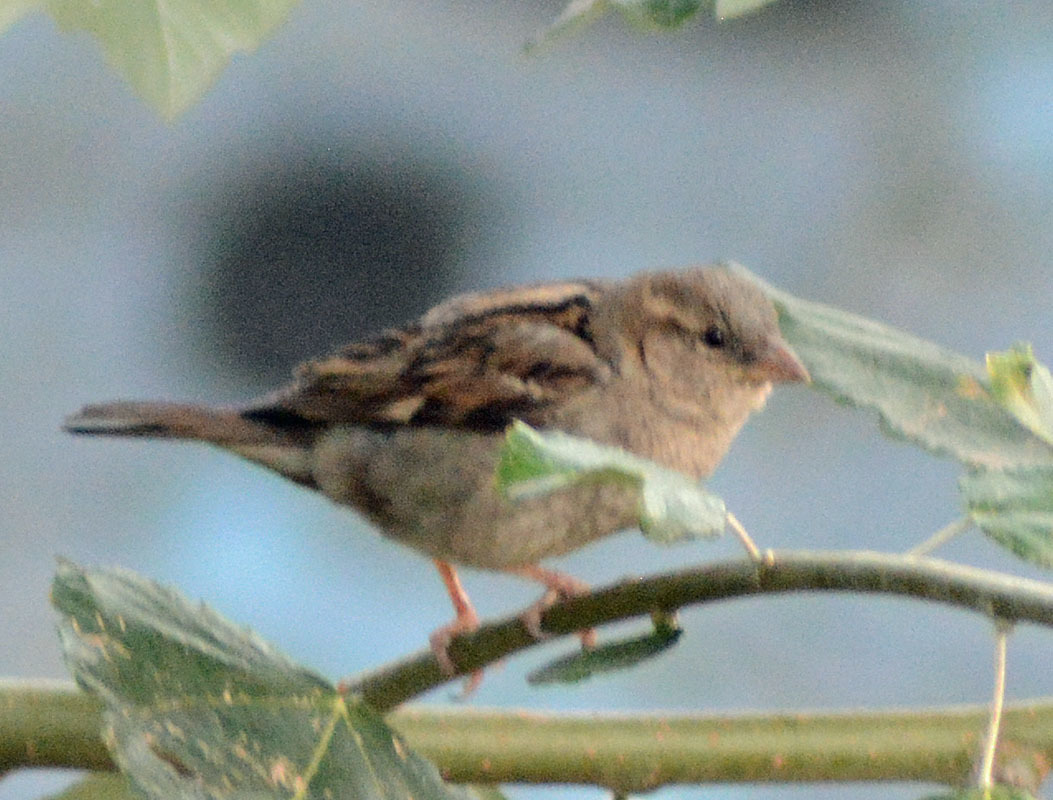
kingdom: Animalia
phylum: Chordata
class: Aves
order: Passeriformes
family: Passeridae
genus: Passer
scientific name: Passer domesticus
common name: House sparrow
